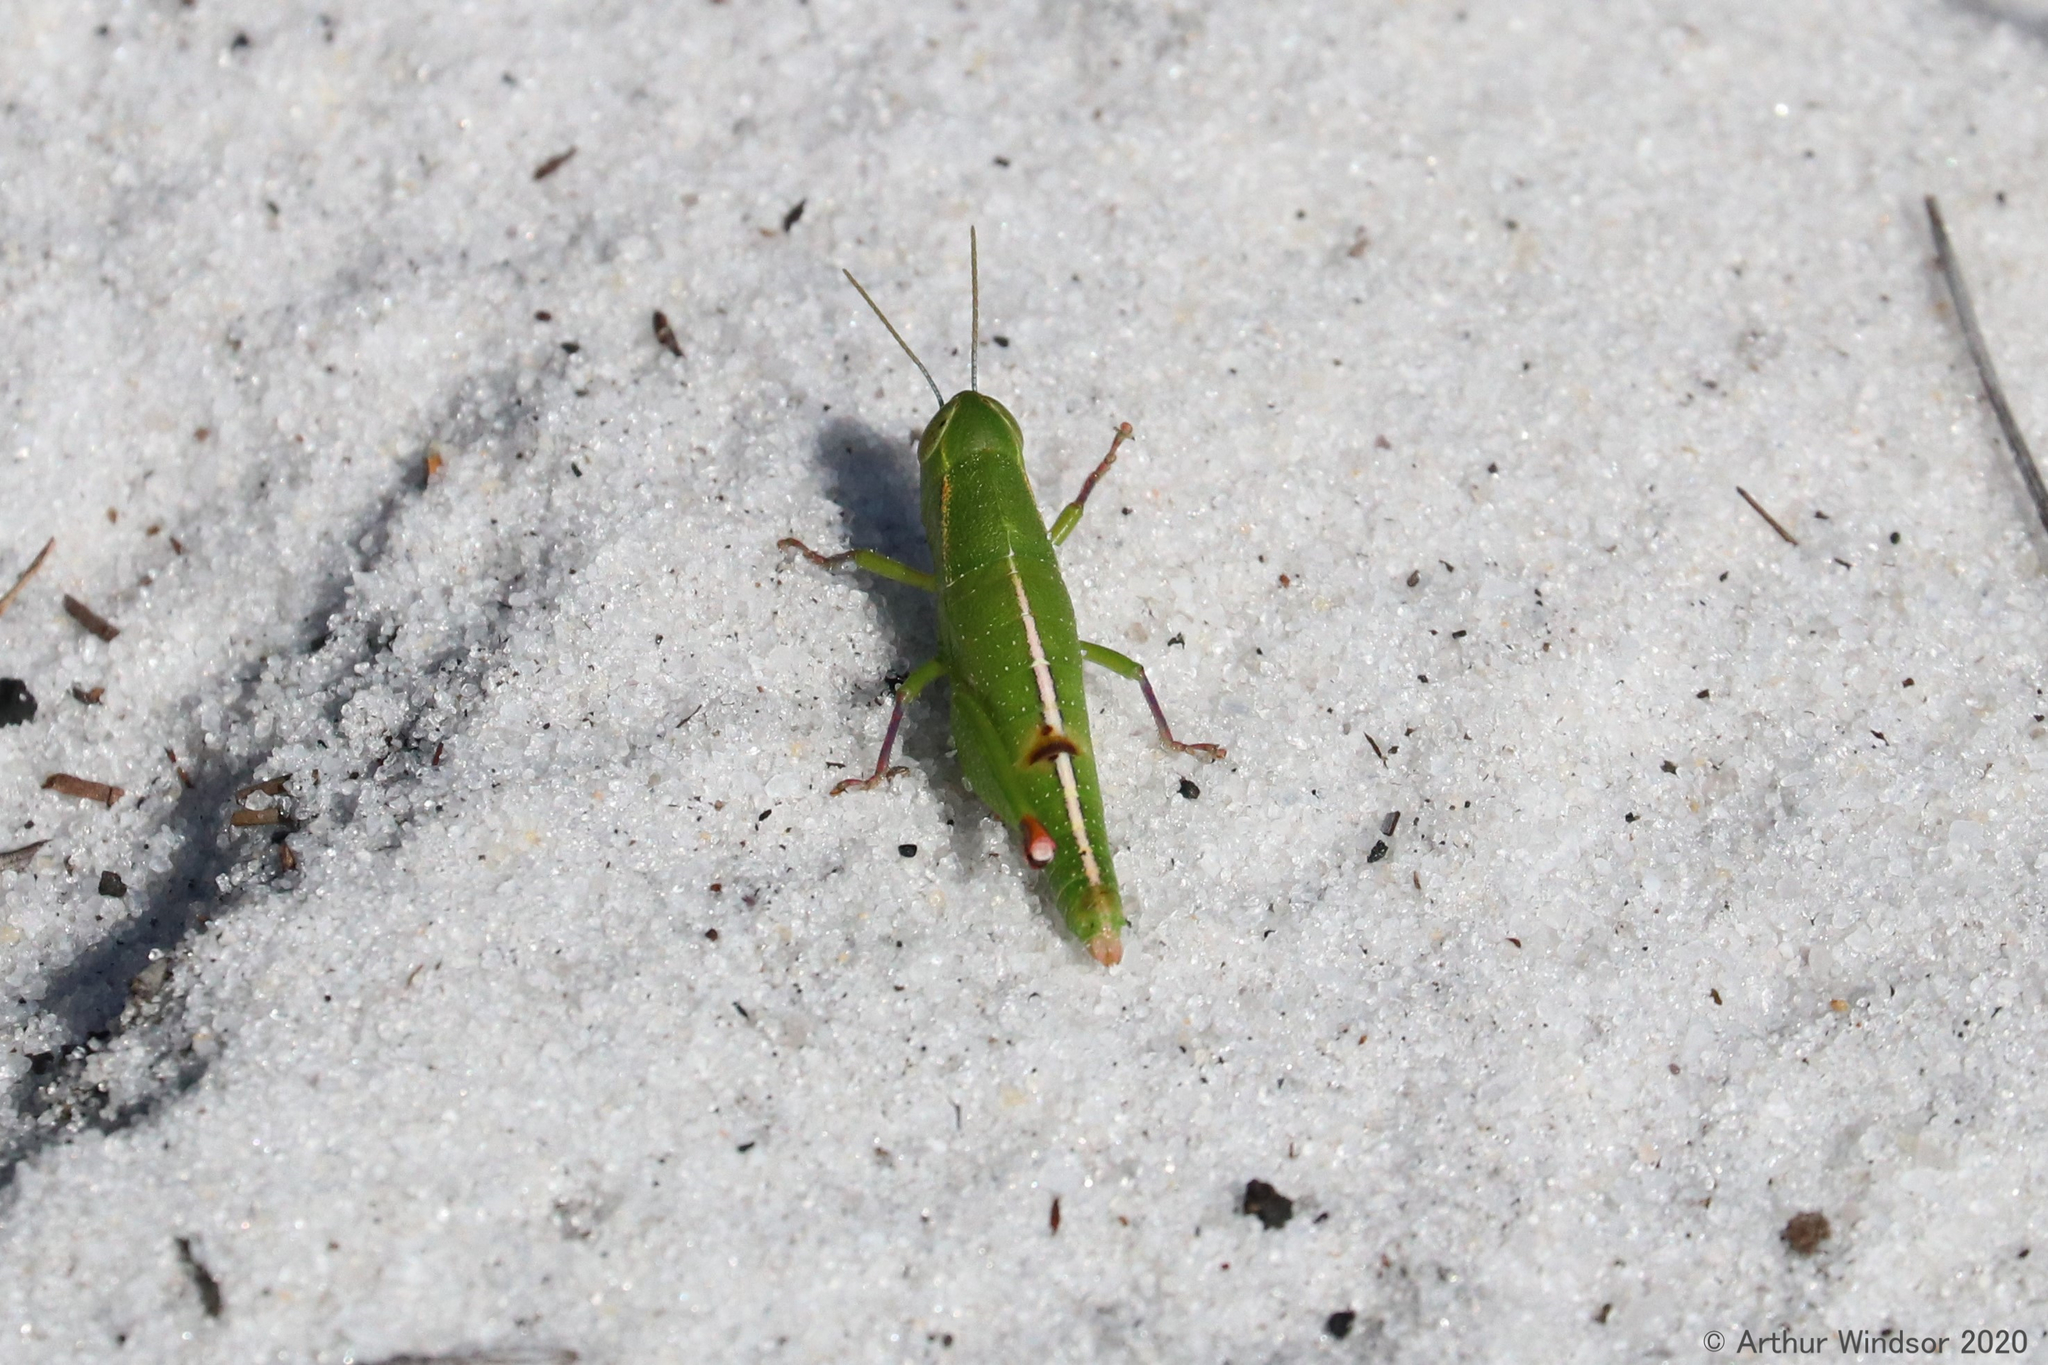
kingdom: Animalia
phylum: Arthropoda
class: Insecta
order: Orthoptera
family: Acrididae
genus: Floritettix
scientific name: Floritettix coquinae
